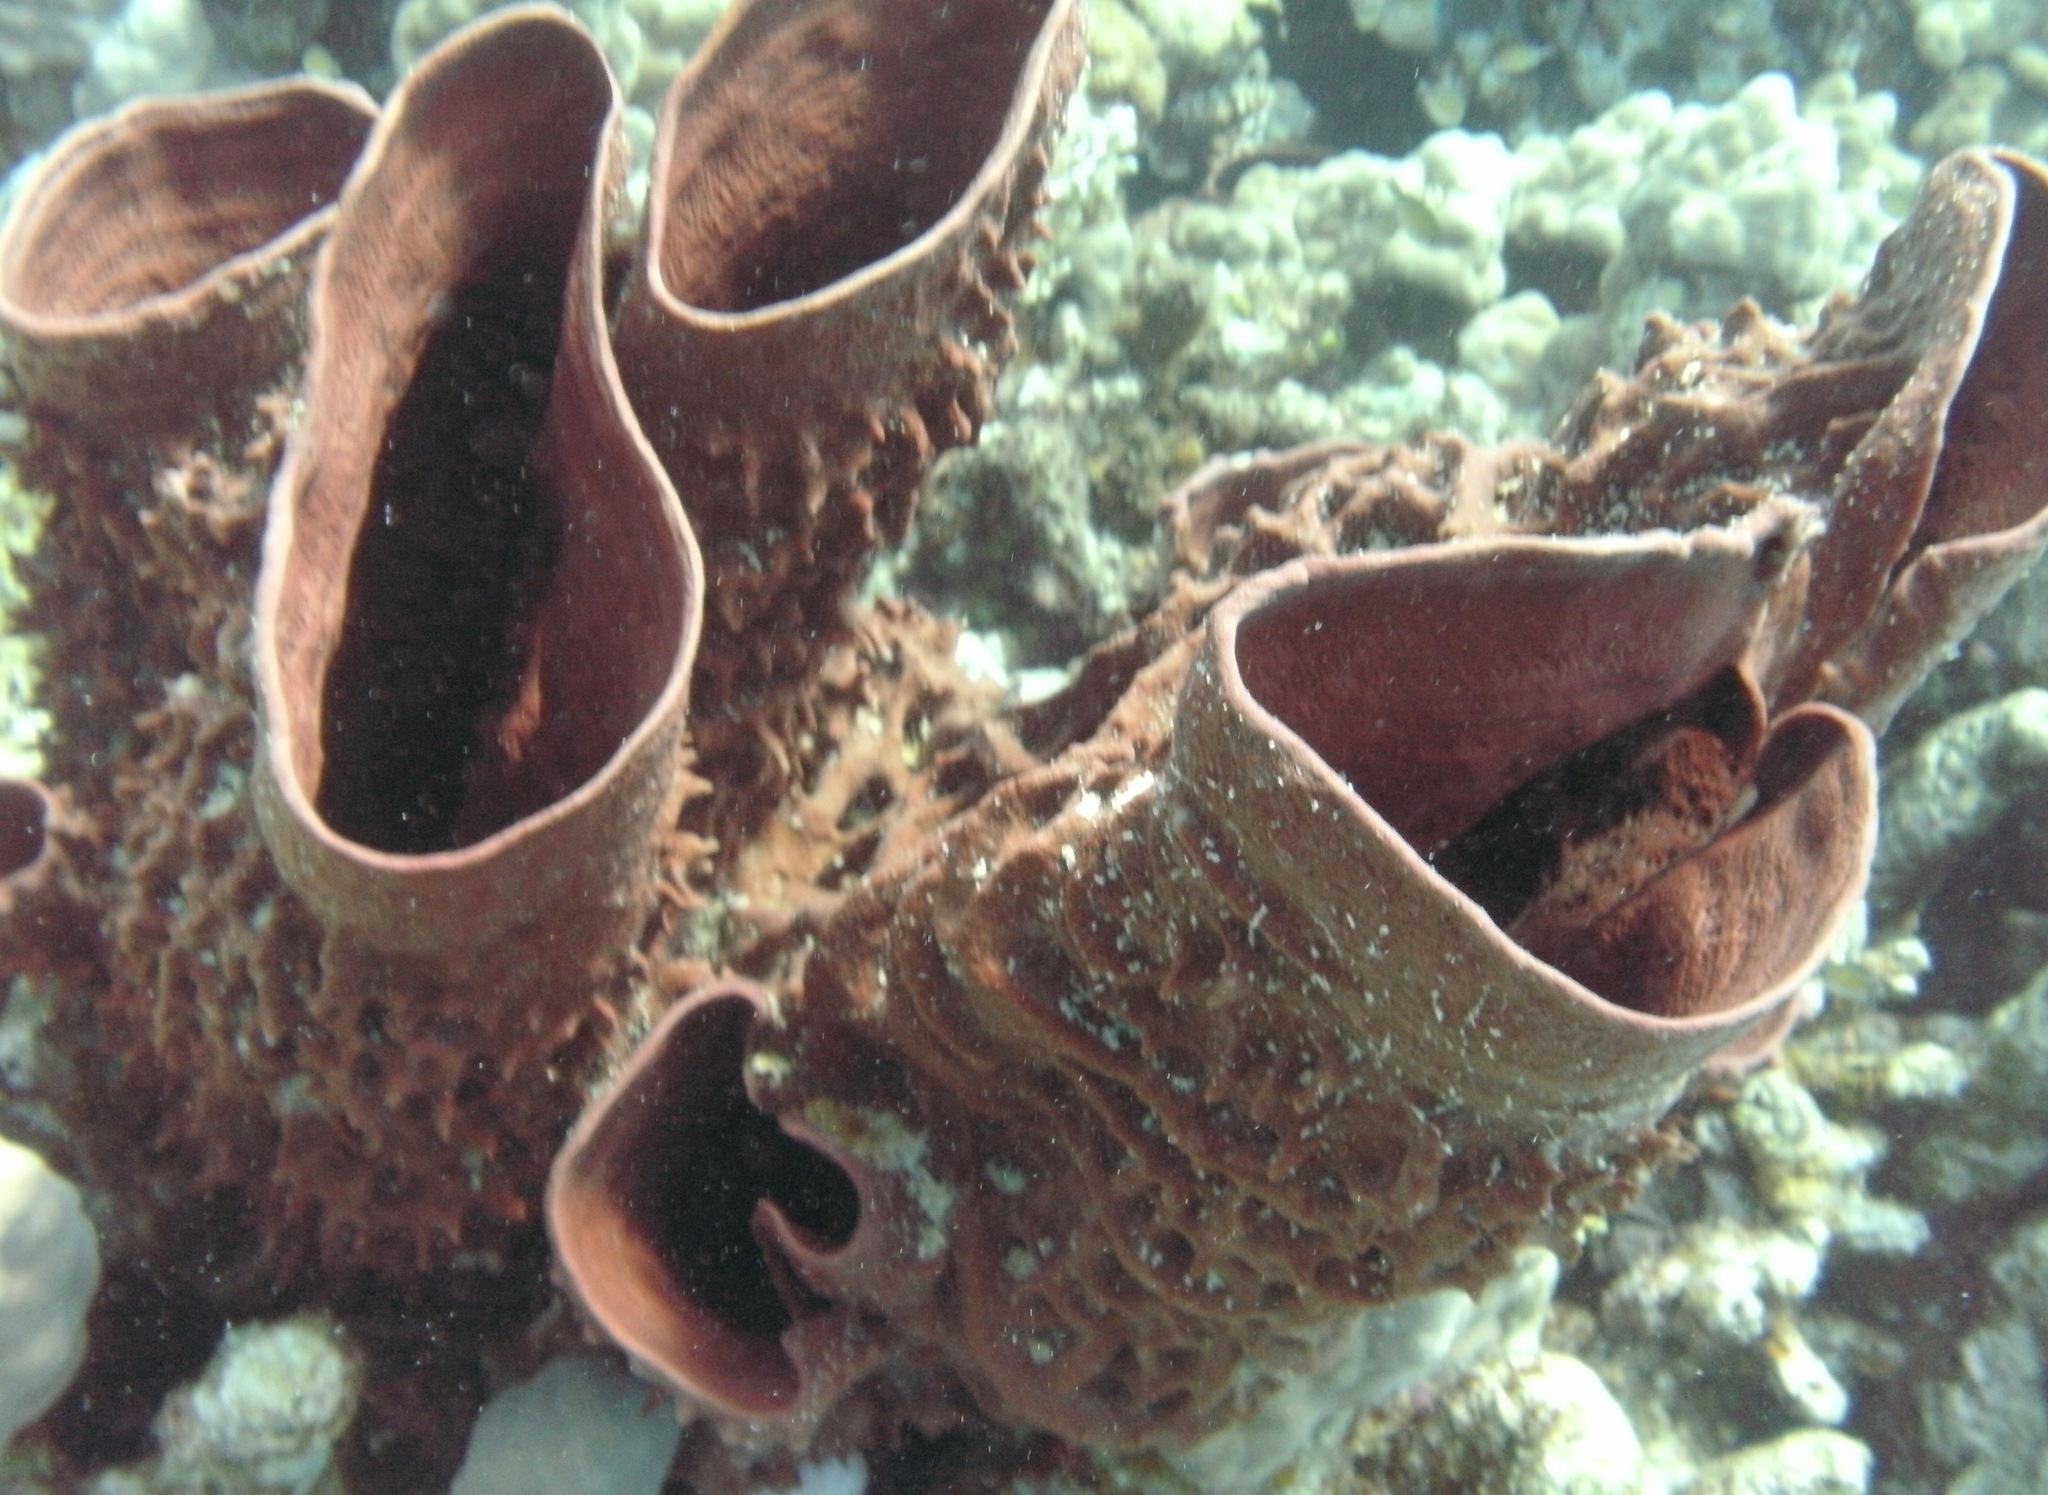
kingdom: Animalia
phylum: Porifera
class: Demospongiae
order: Haplosclerida
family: Callyspongiidae
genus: Callyspongia
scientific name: Callyspongia crassa
